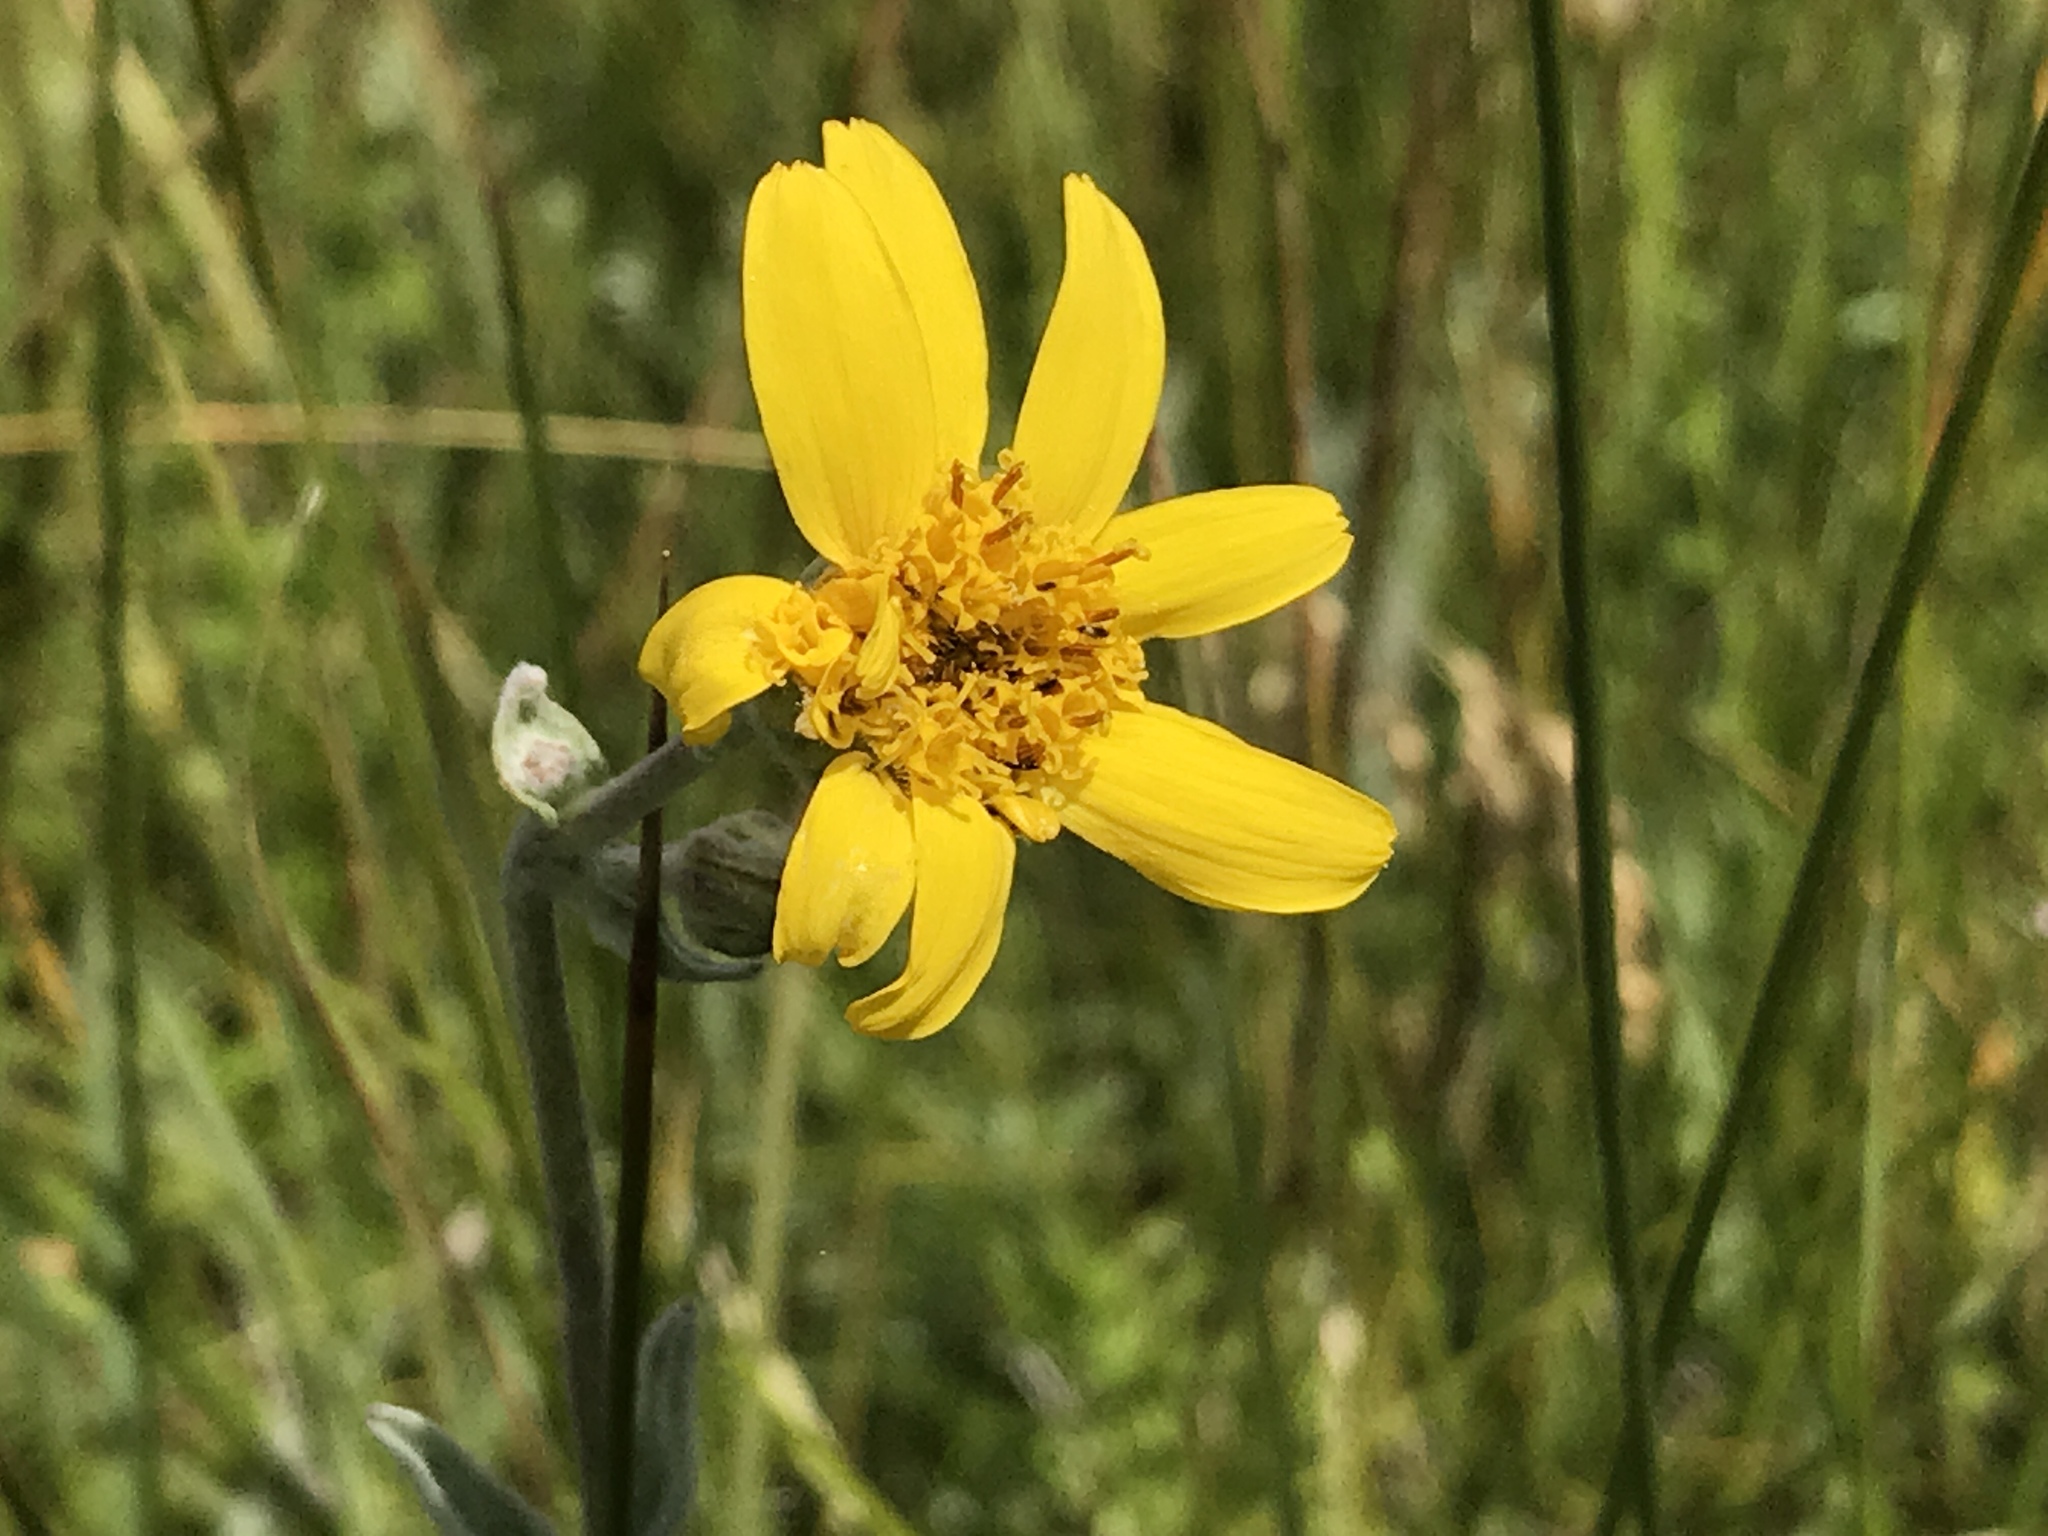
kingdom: Plantae
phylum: Tracheophyta
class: Magnoliopsida
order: Asterales
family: Asteraceae
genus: Arnica
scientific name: Arnica chamissonis
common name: Leafy arnica
